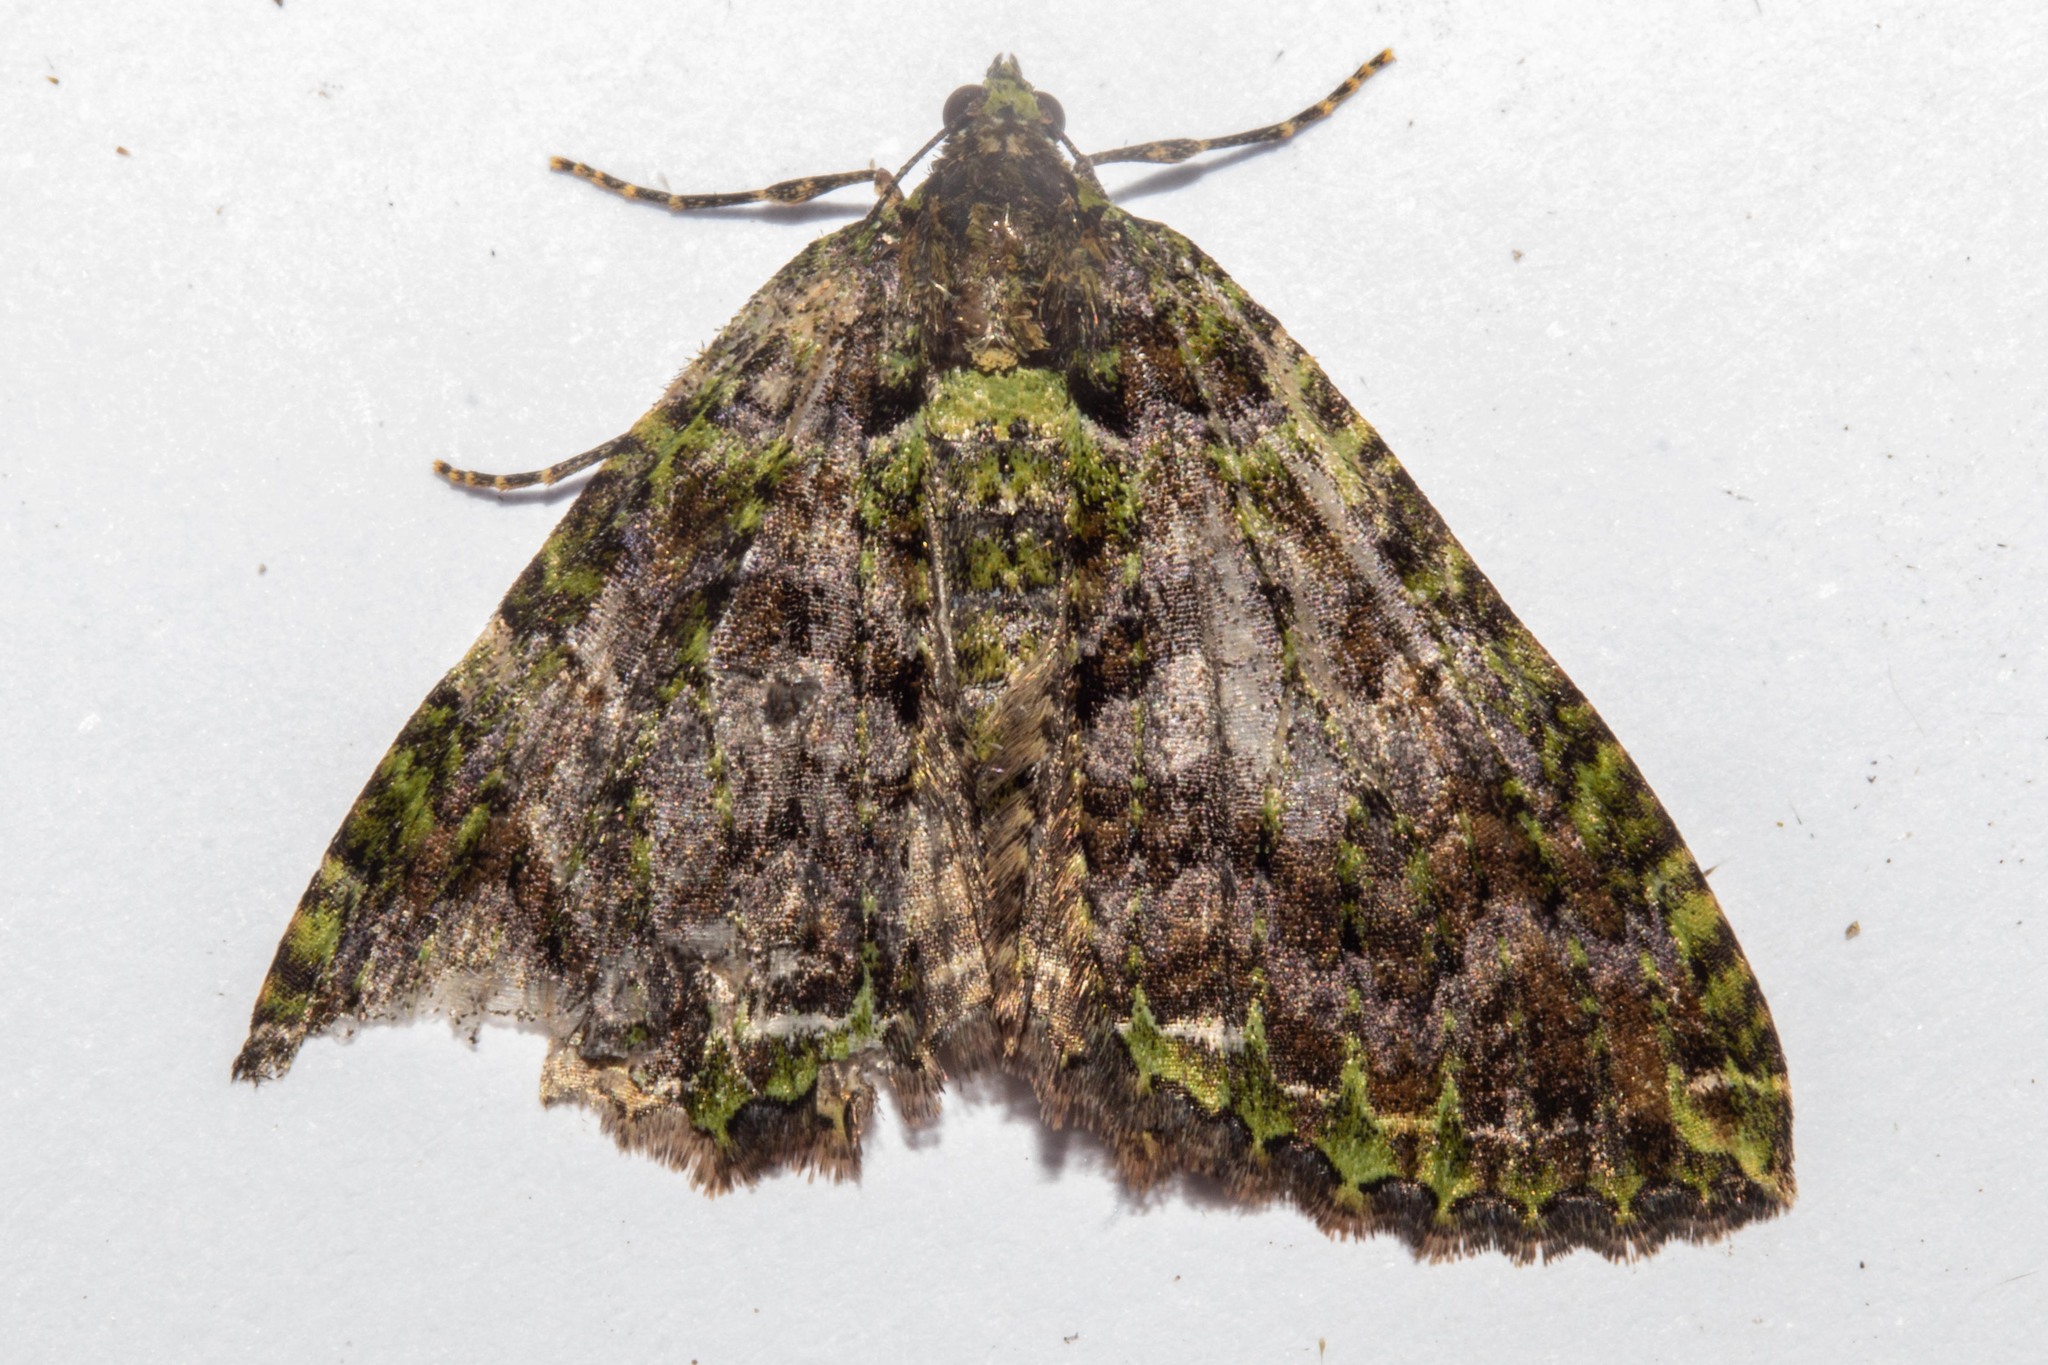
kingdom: Animalia
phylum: Arthropoda
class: Insecta
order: Lepidoptera
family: Geometridae
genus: Austrocidaria
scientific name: Austrocidaria similata
